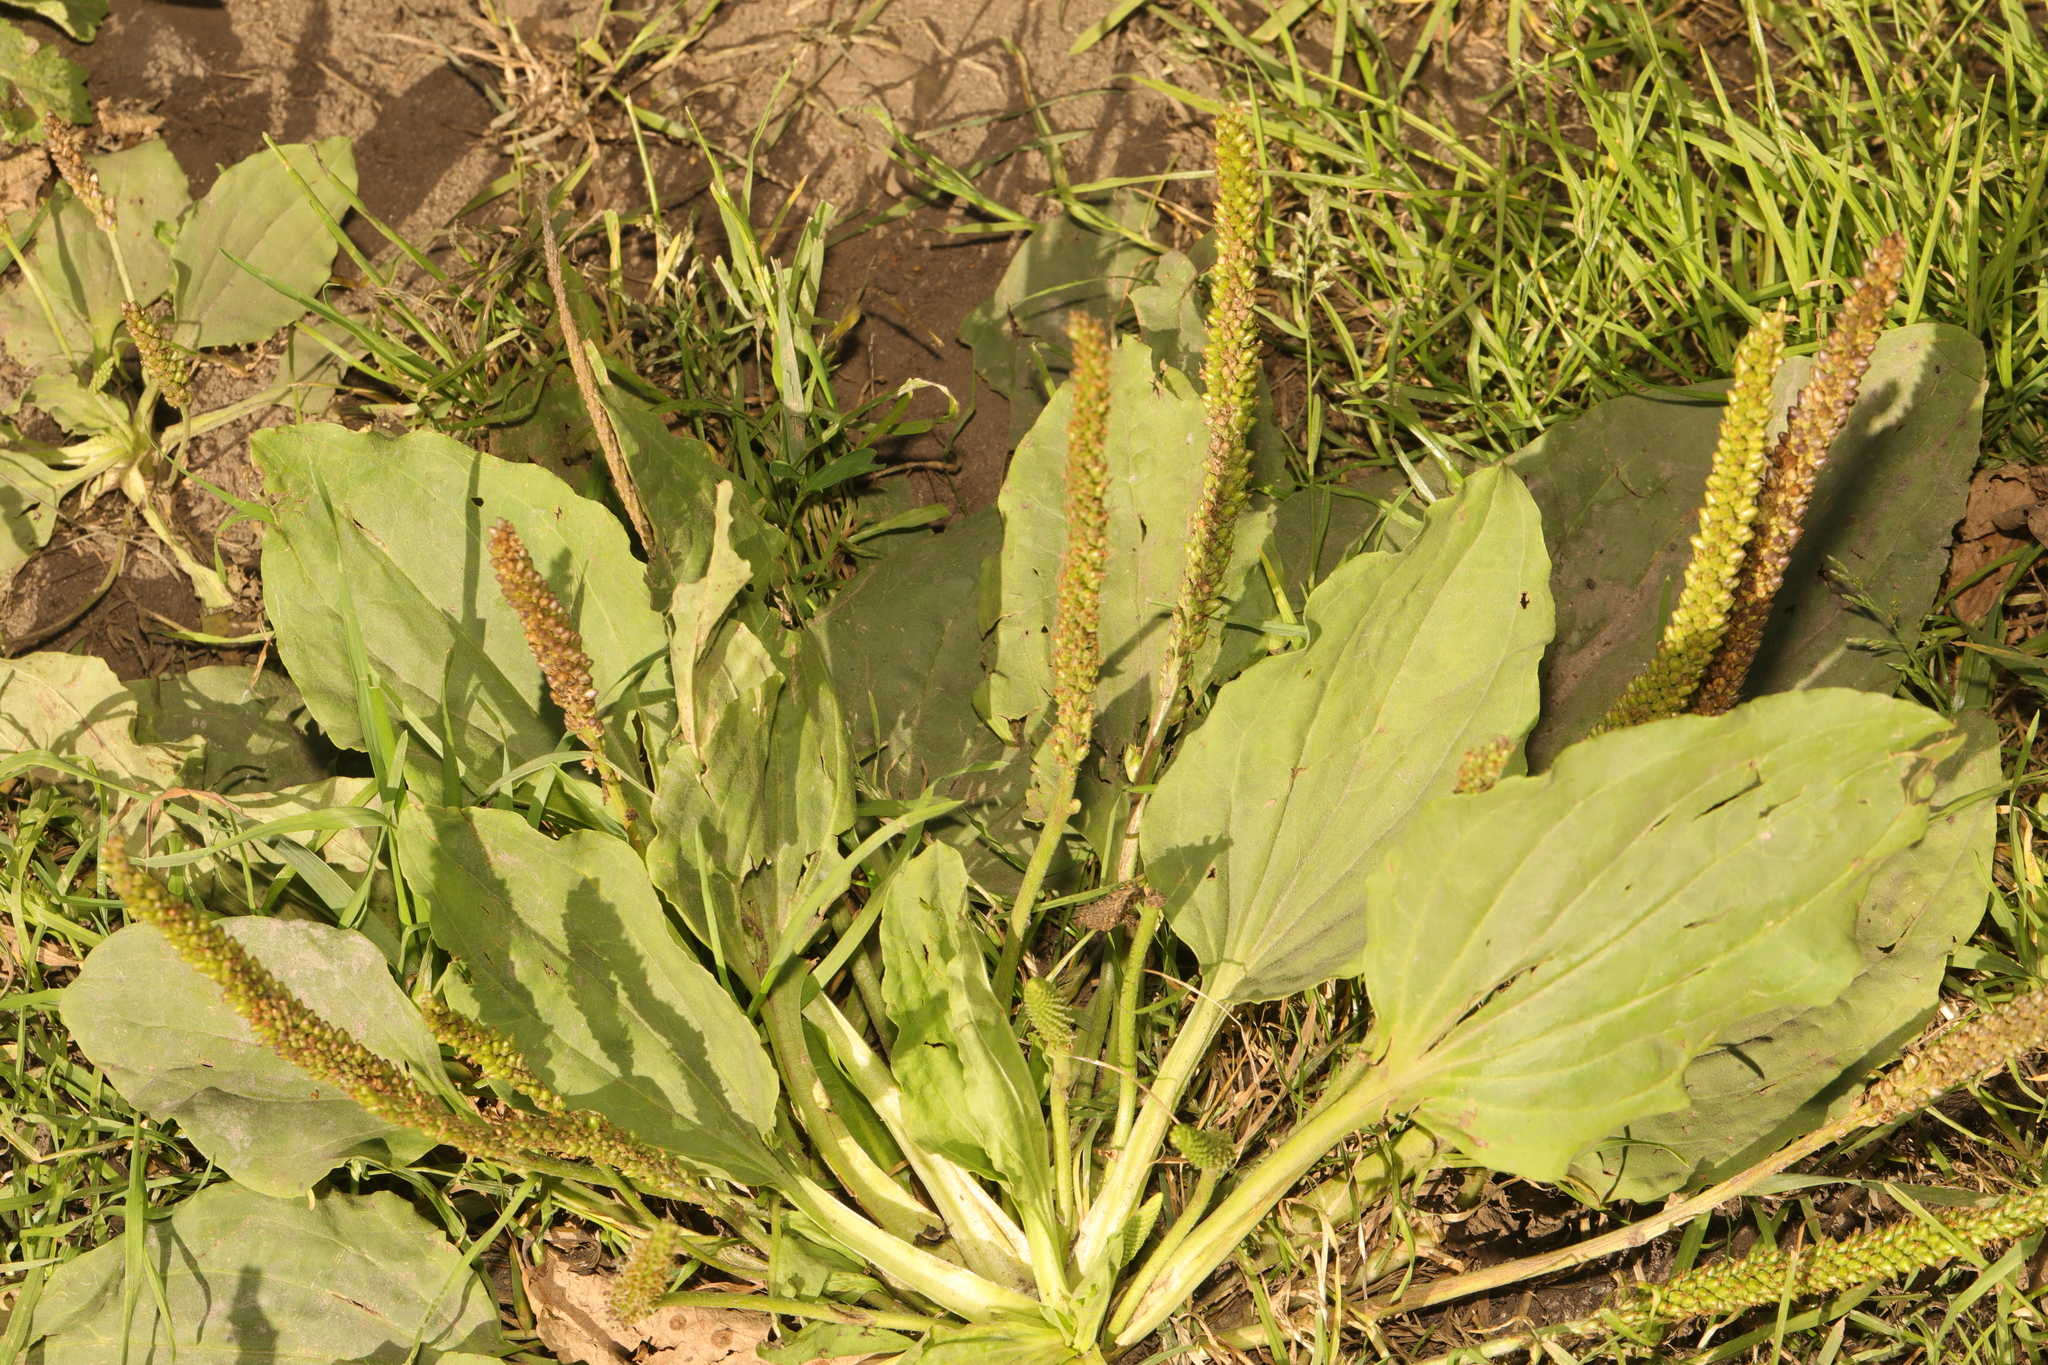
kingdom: Plantae
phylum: Tracheophyta
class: Magnoliopsida
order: Lamiales
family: Plantaginaceae
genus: Plantago
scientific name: Plantago major
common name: Common plantain
